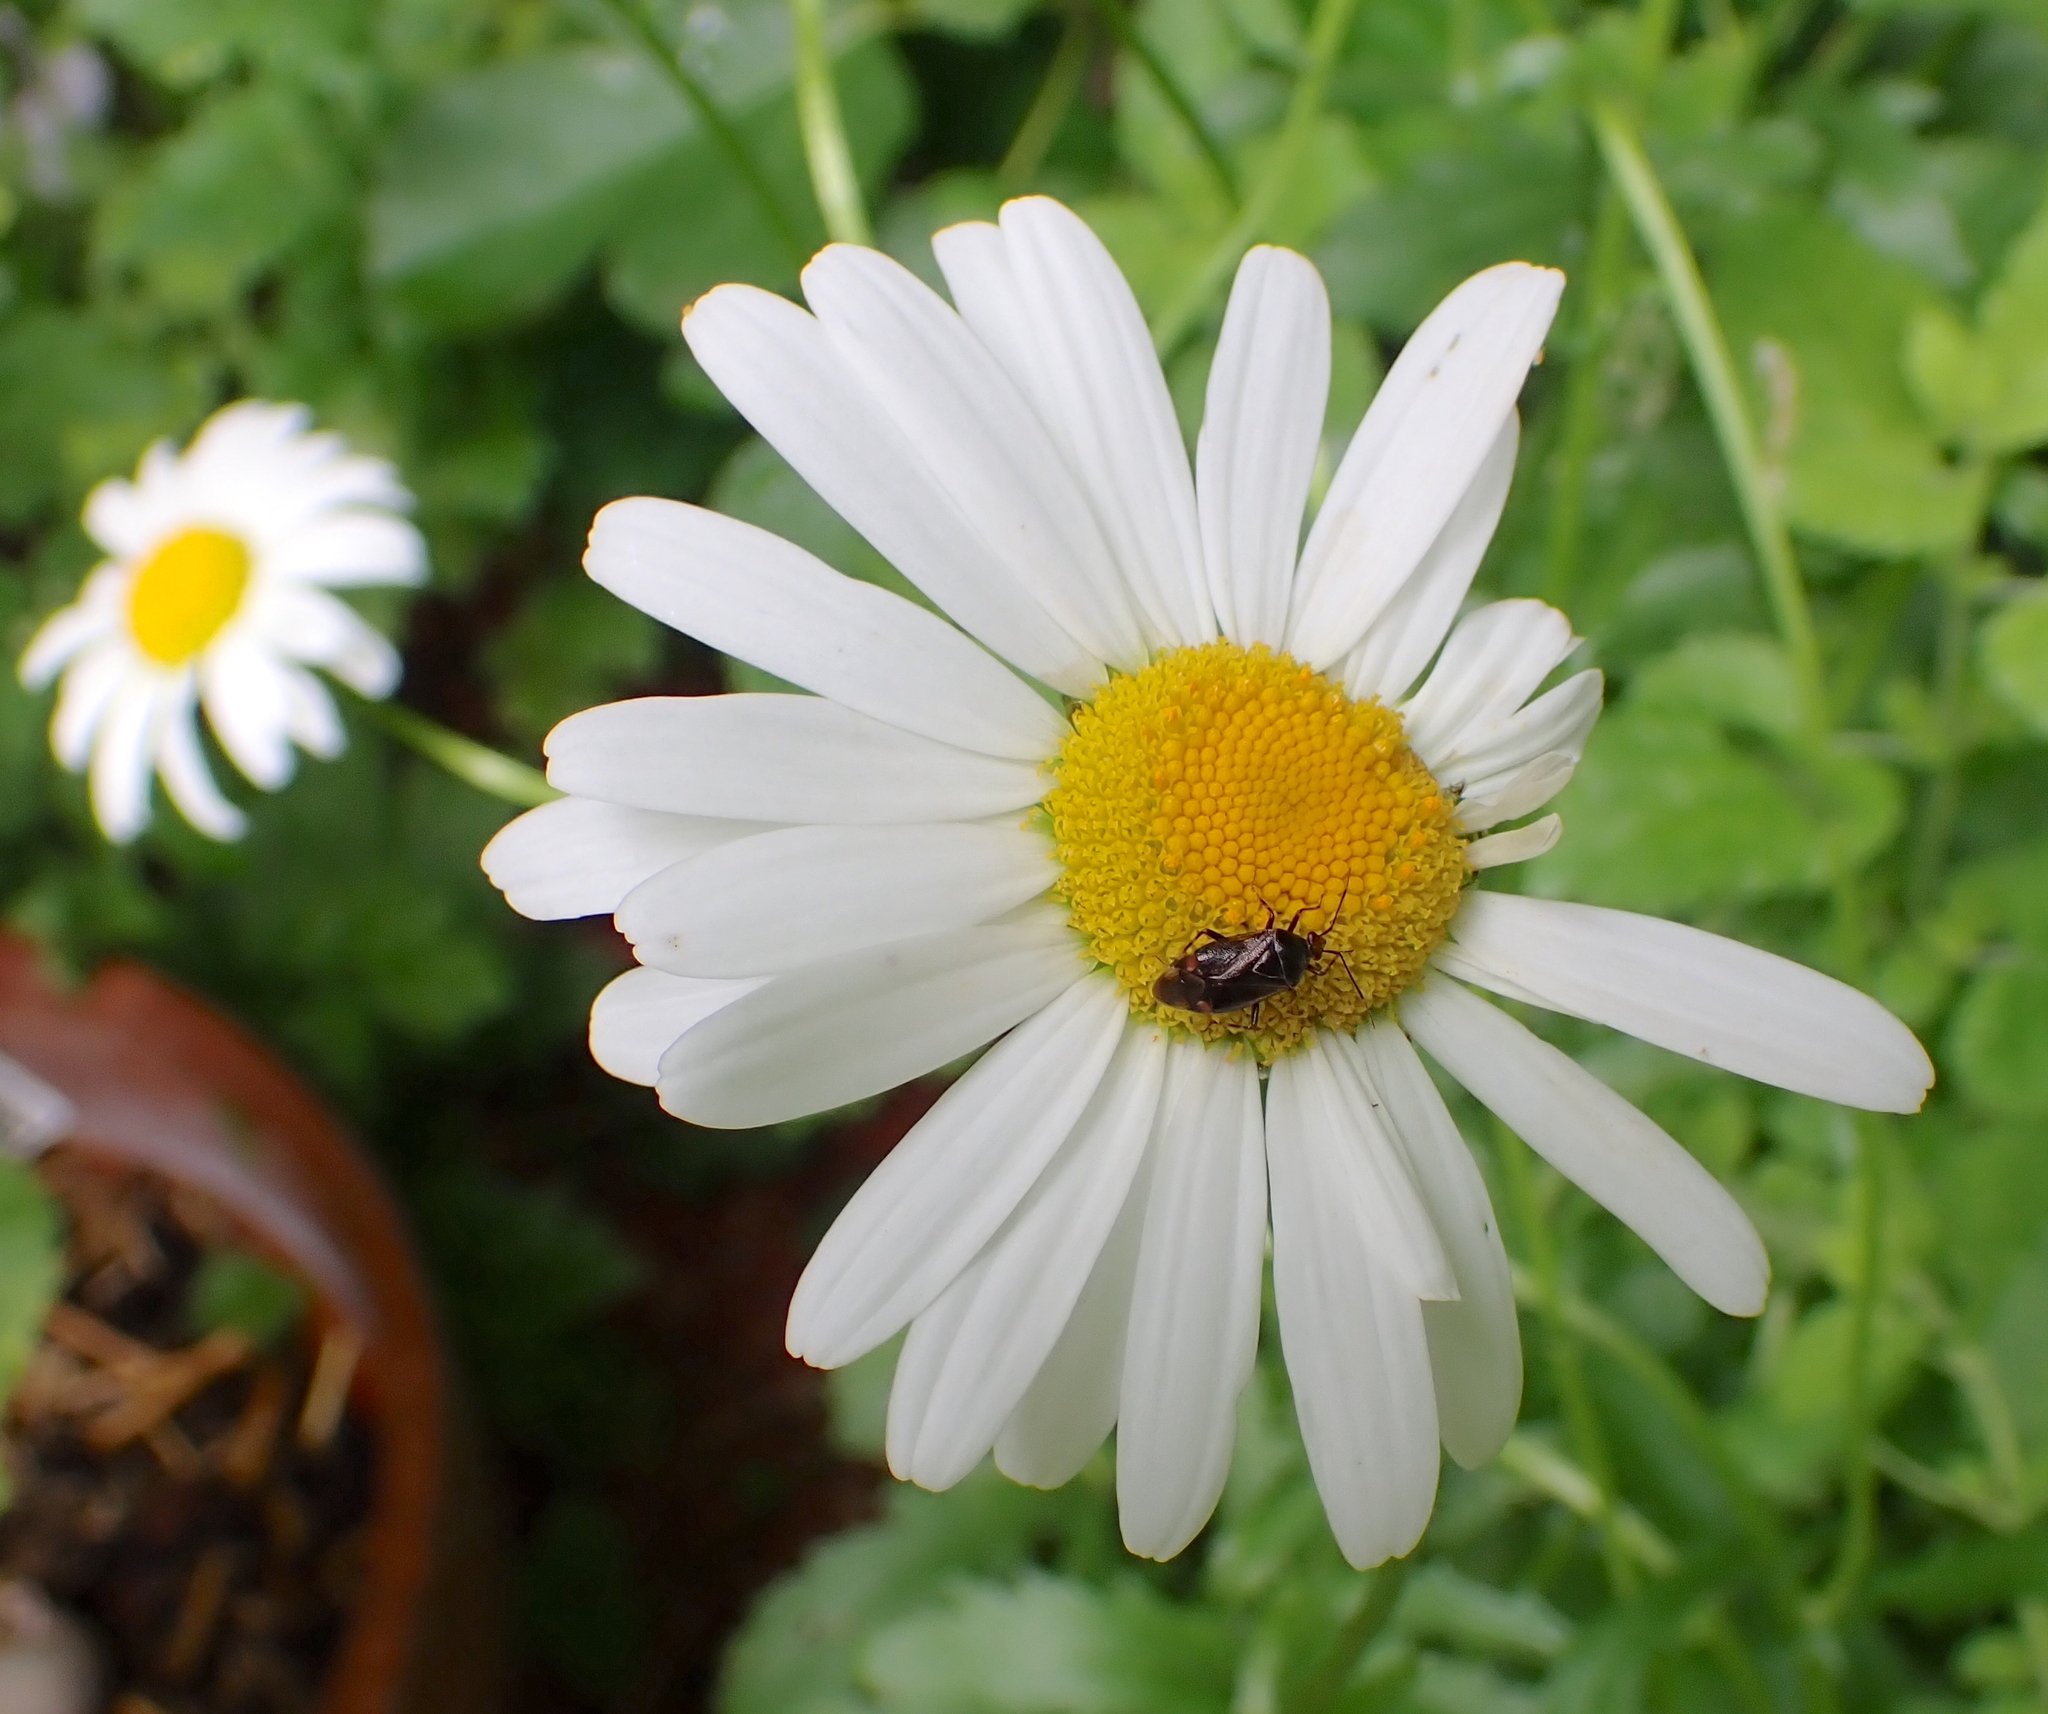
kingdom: Animalia
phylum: Arthropoda
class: Insecta
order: Hemiptera
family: Miridae
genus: Deraeocoris
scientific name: Deraeocoris flavilinea
